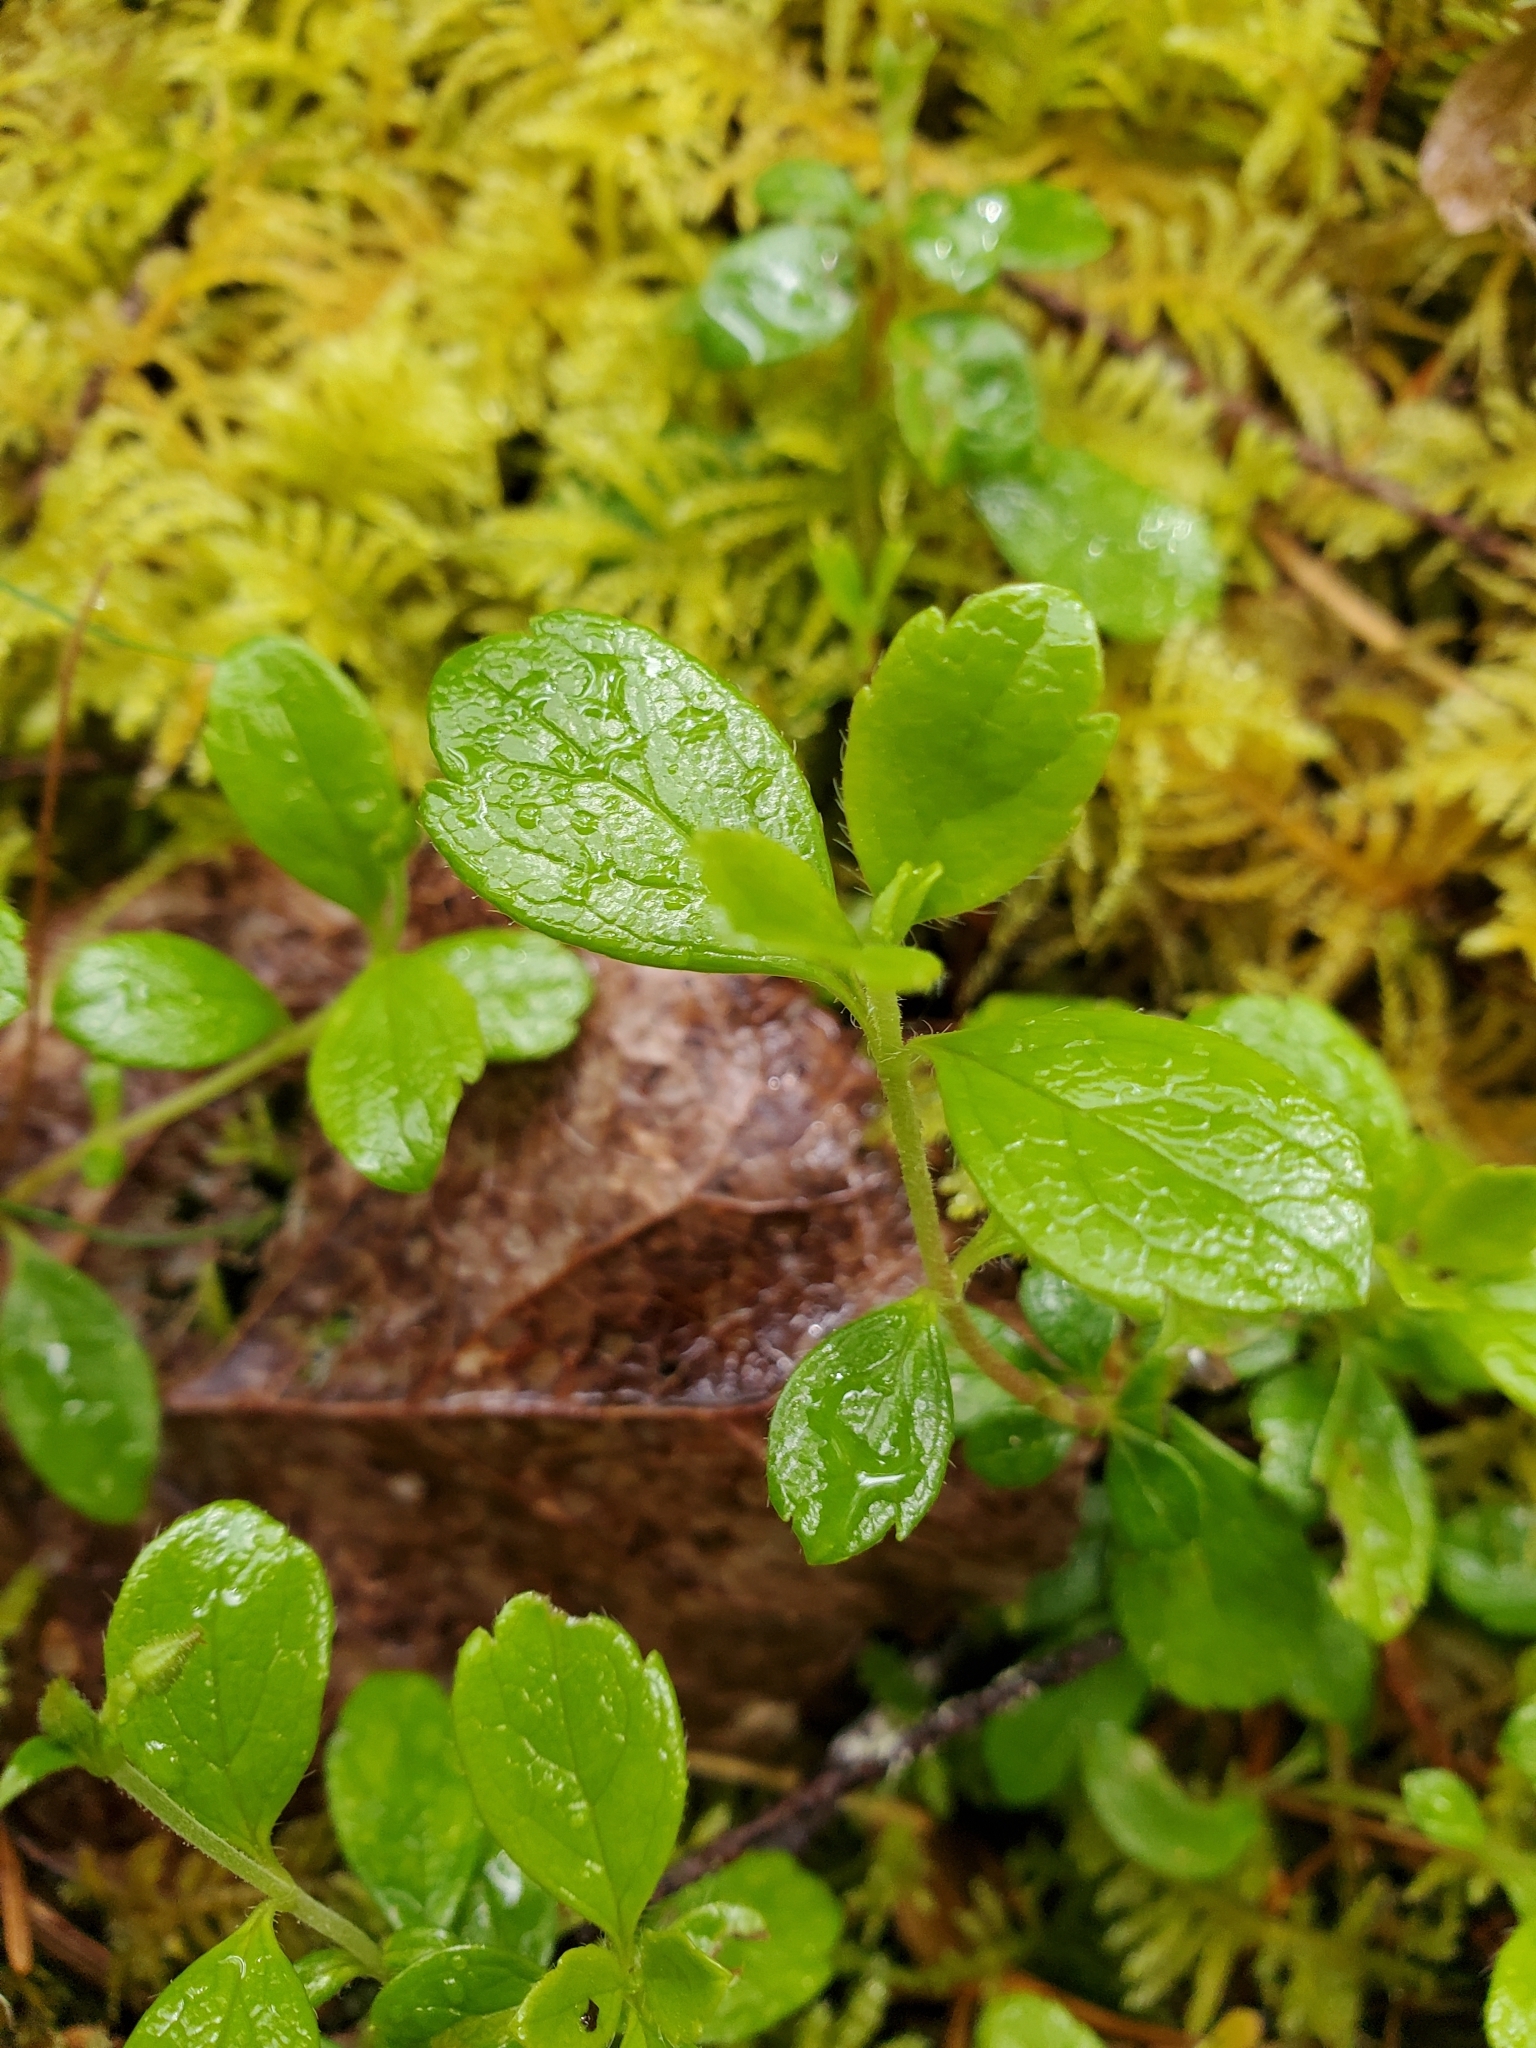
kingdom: Plantae
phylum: Tracheophyta
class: Magnoliopsida
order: Dipsacales
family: Caprifoliaceae
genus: Linnaea
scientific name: Linnaea borealis
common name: Twinflower
